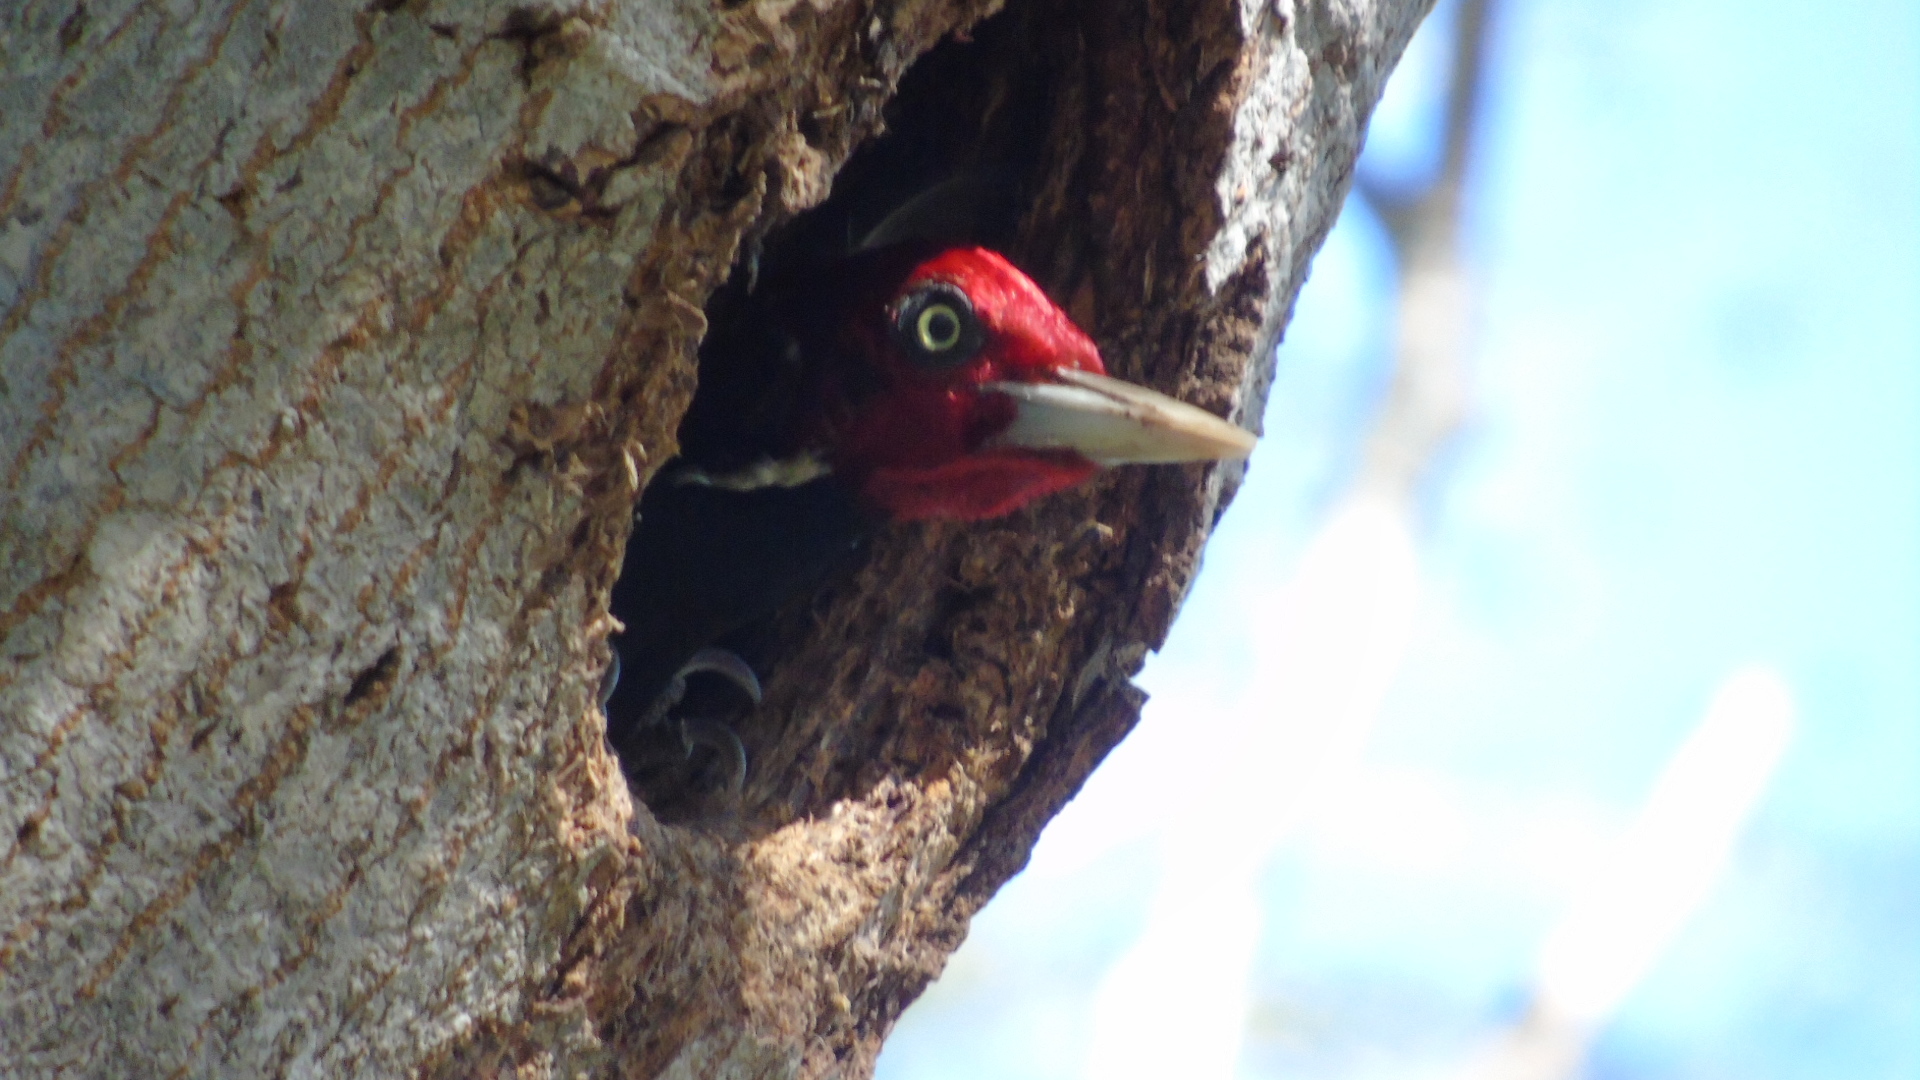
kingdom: Animalia
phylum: Chordata
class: Aves
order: Piciformes
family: Picidae
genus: Campephilus
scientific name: Campephilus guatemalensis
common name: Pale-billed woodpecker
